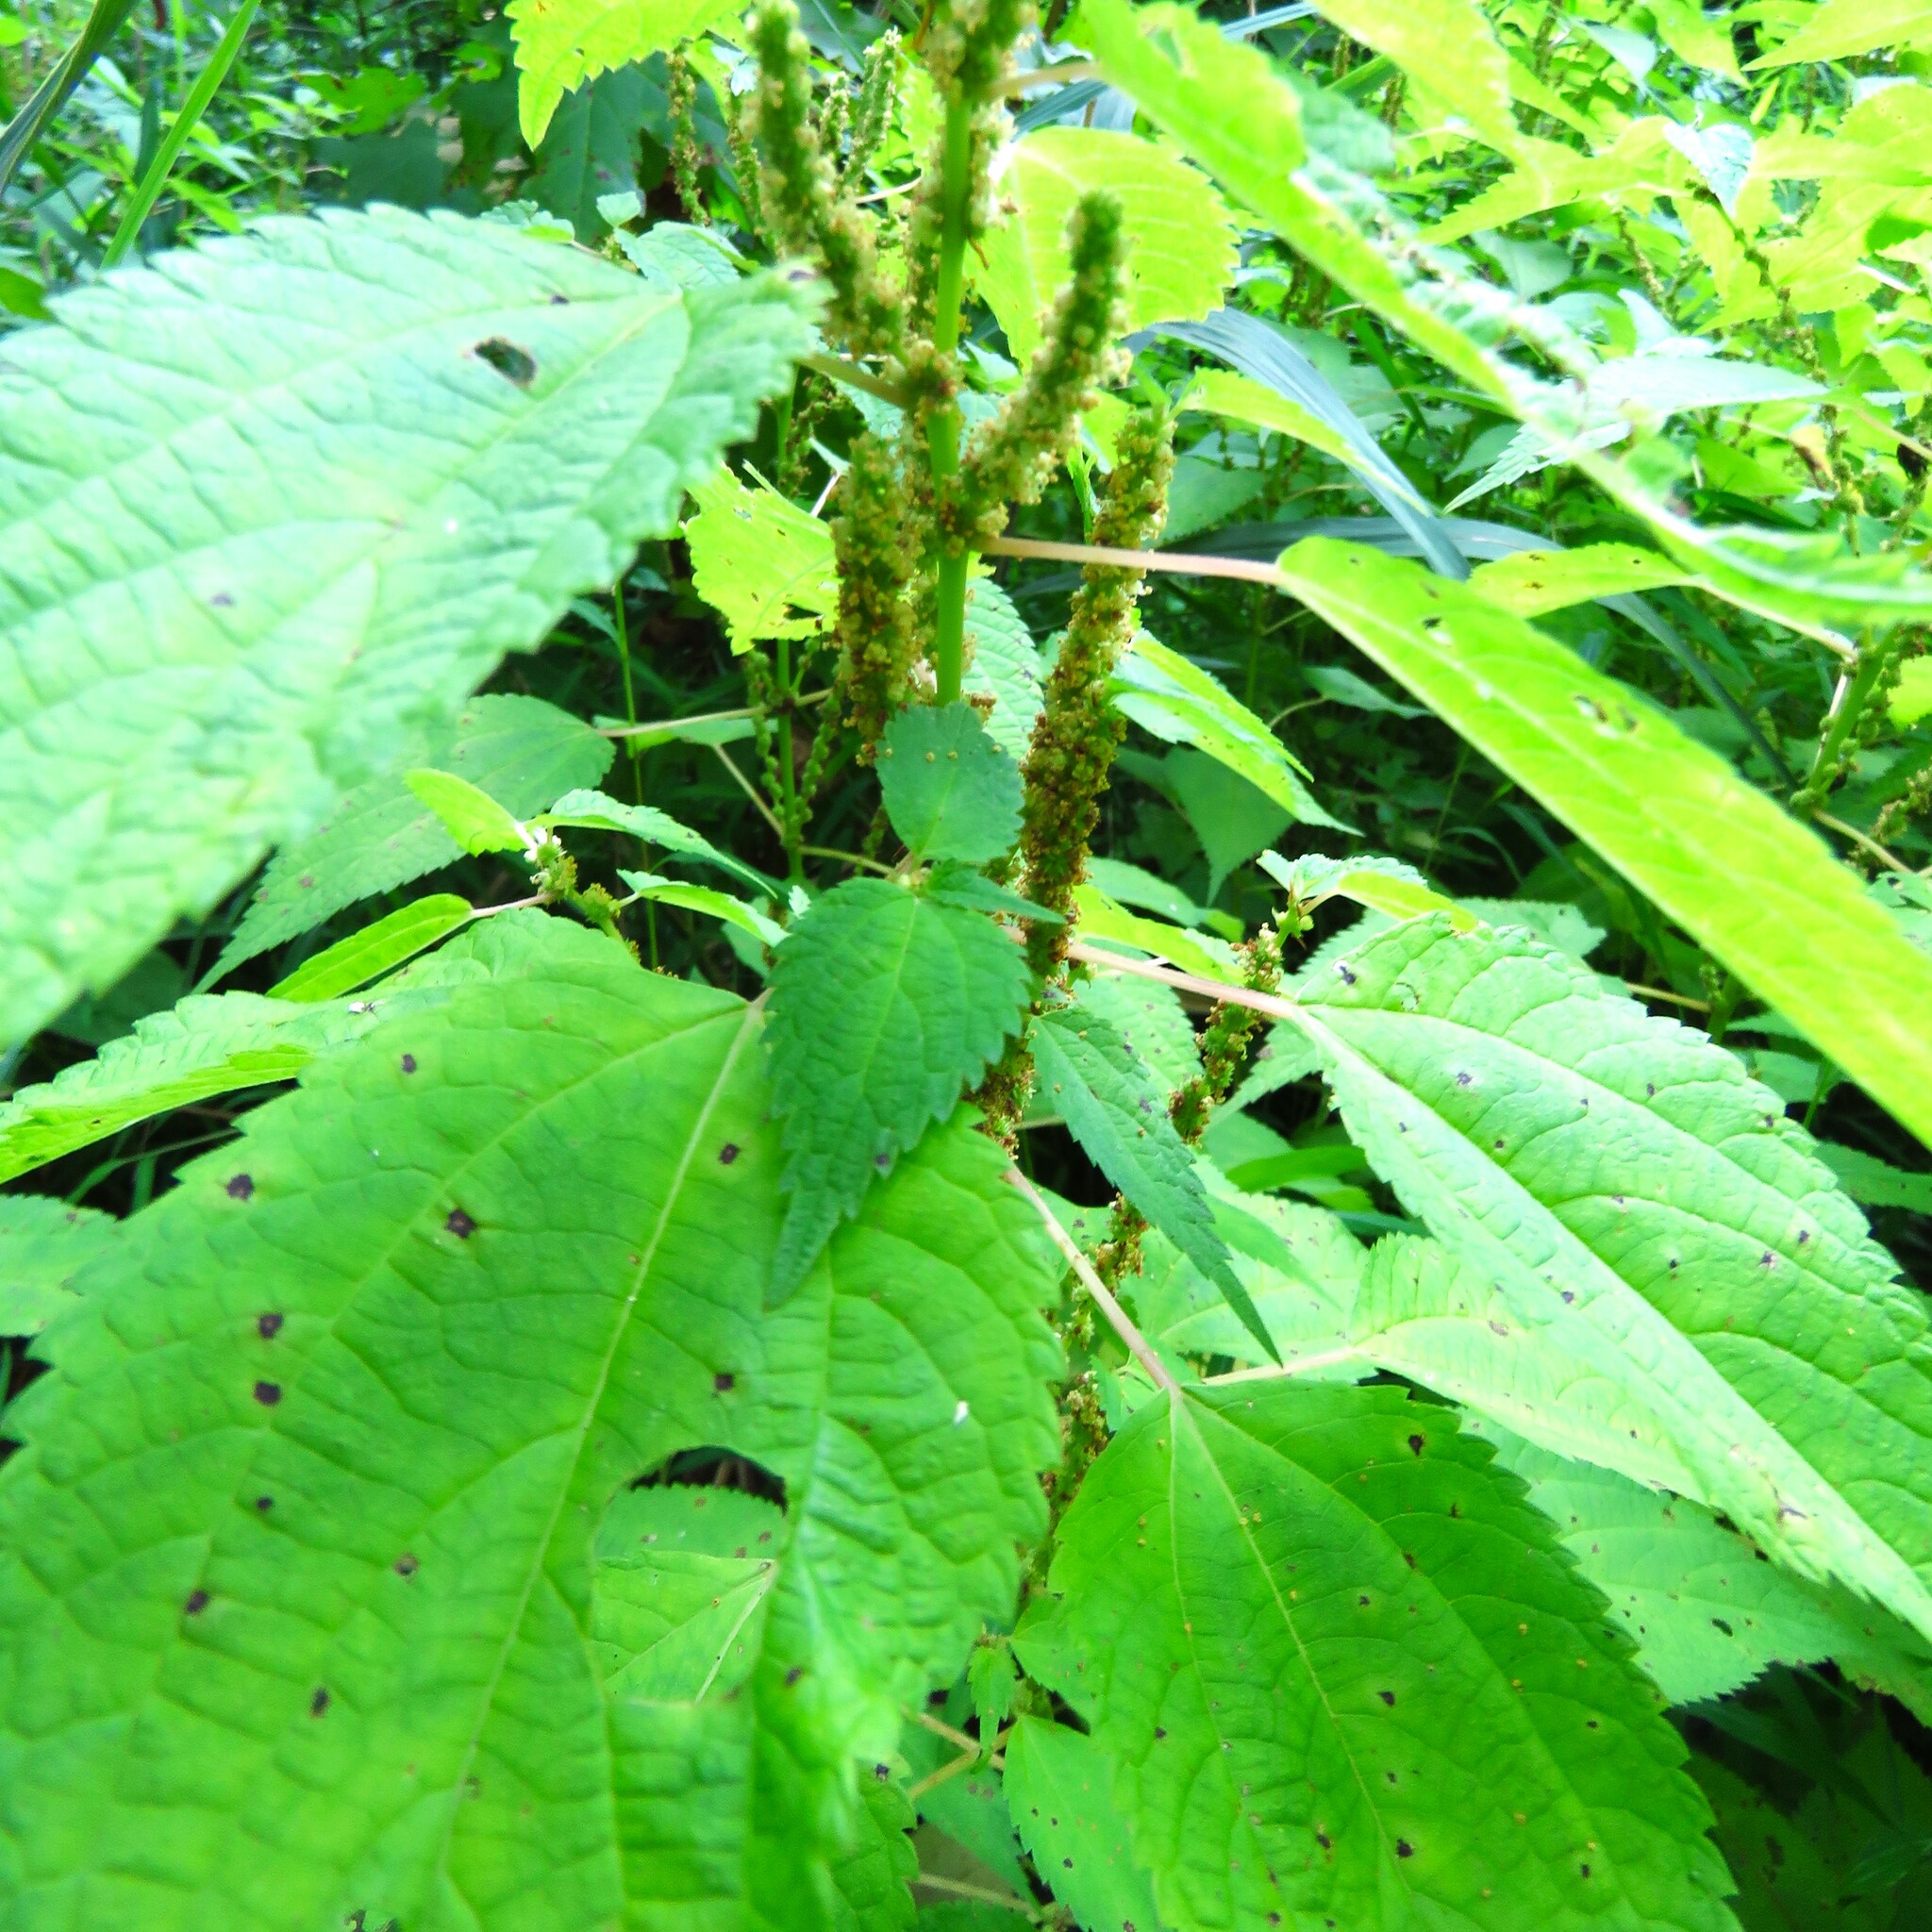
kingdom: Plantae
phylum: Tracheophyta
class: Magnoliopsida
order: Rosales
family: Urticaceae
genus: Boehmeria
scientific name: Boehmeria cylindrica
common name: Bog-hemp
